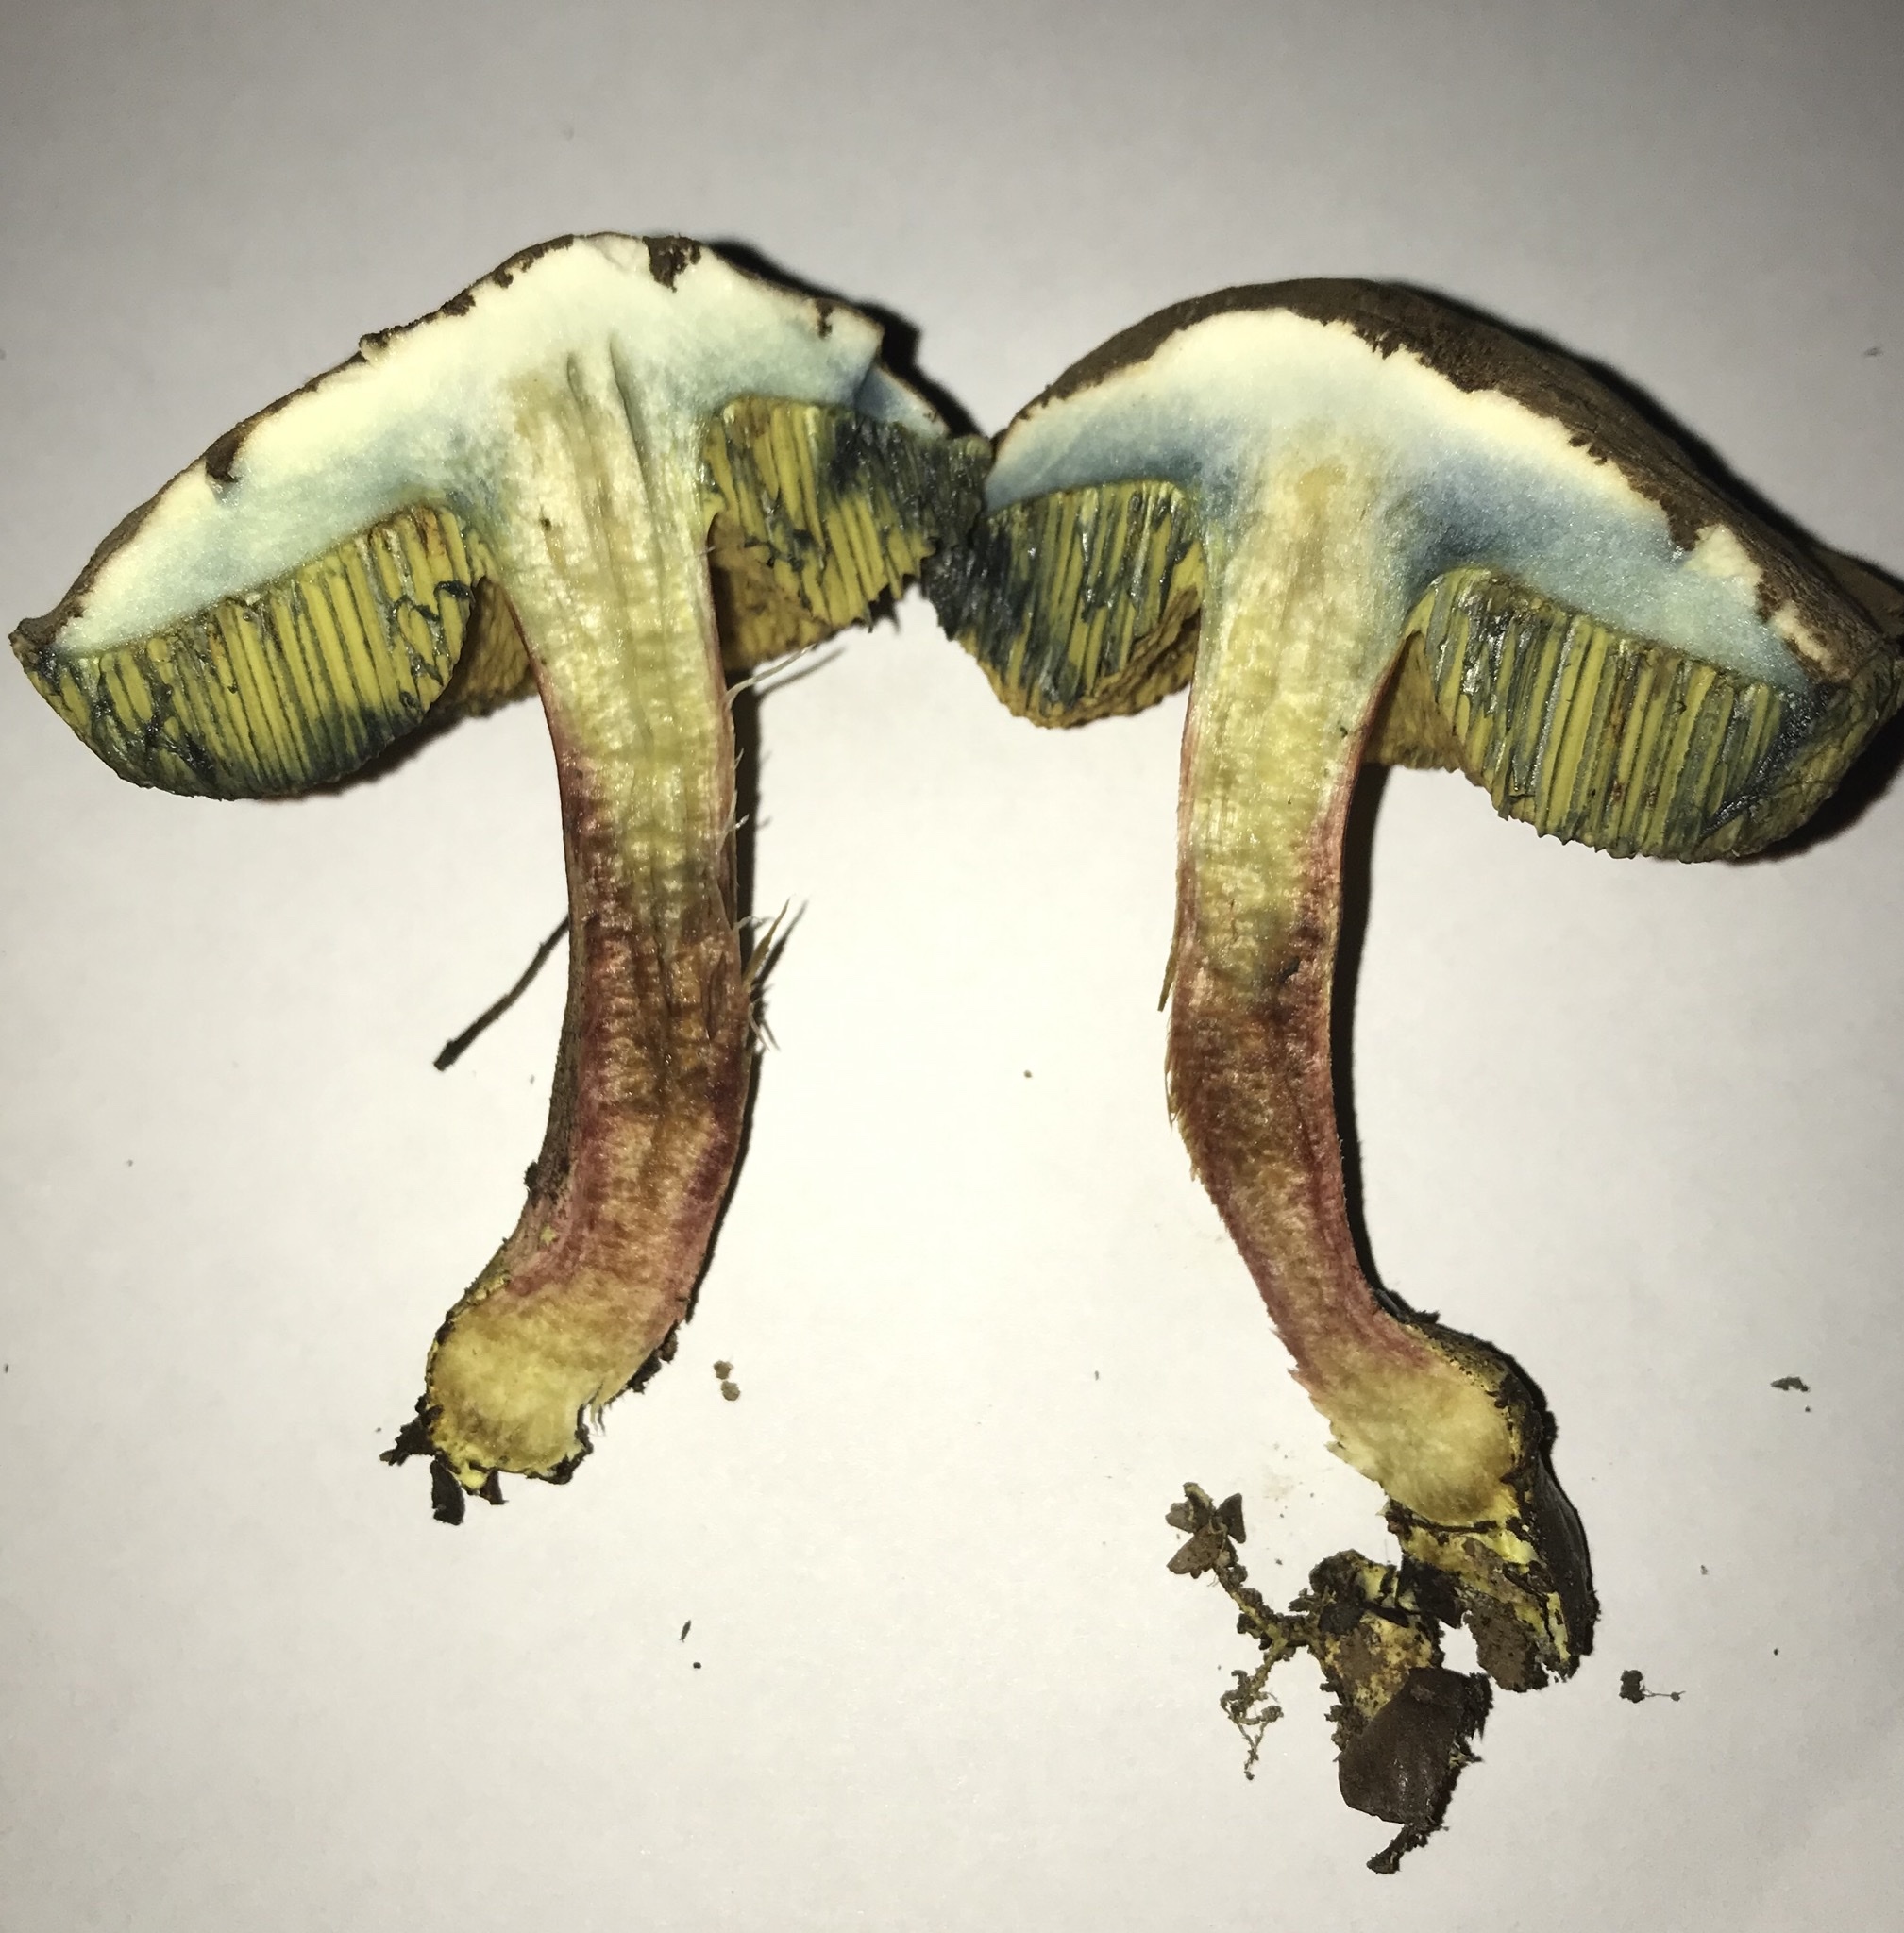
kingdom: Fungi
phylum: Basidiomycota
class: Agaricomycetes
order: Boletales
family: Boletaceae
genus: Xerocomellus
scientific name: Xerocomellus mendocinensis
